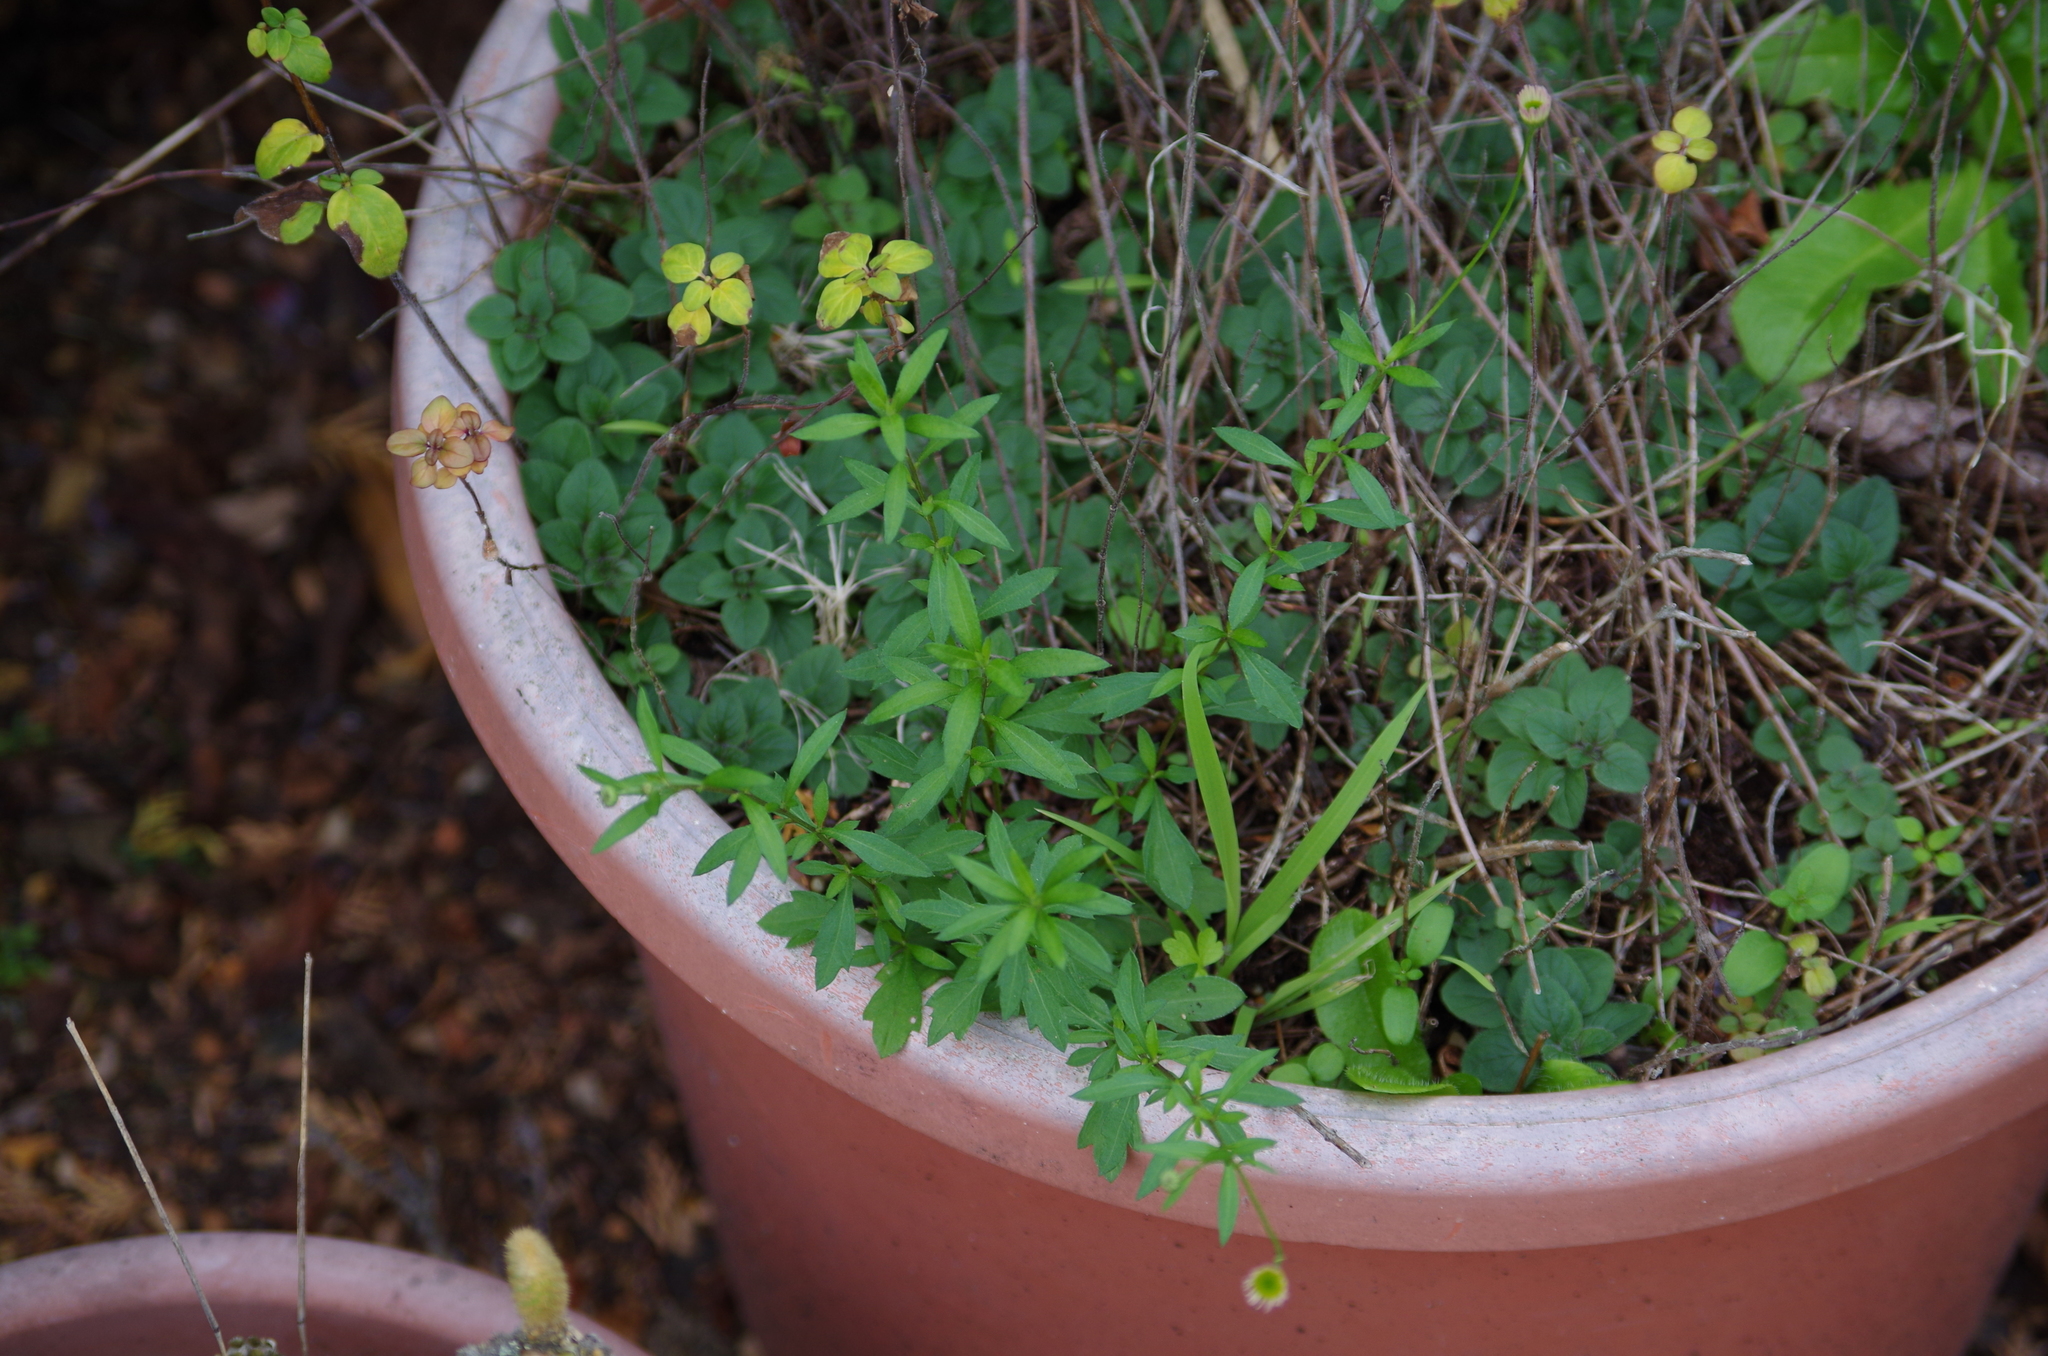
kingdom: Plantae
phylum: Tracheophyta
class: Magnoliopsida
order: Asterales
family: Asteraceae
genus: Erigeron
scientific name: Erigeron karvinskianus
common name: Mexican fleabane
